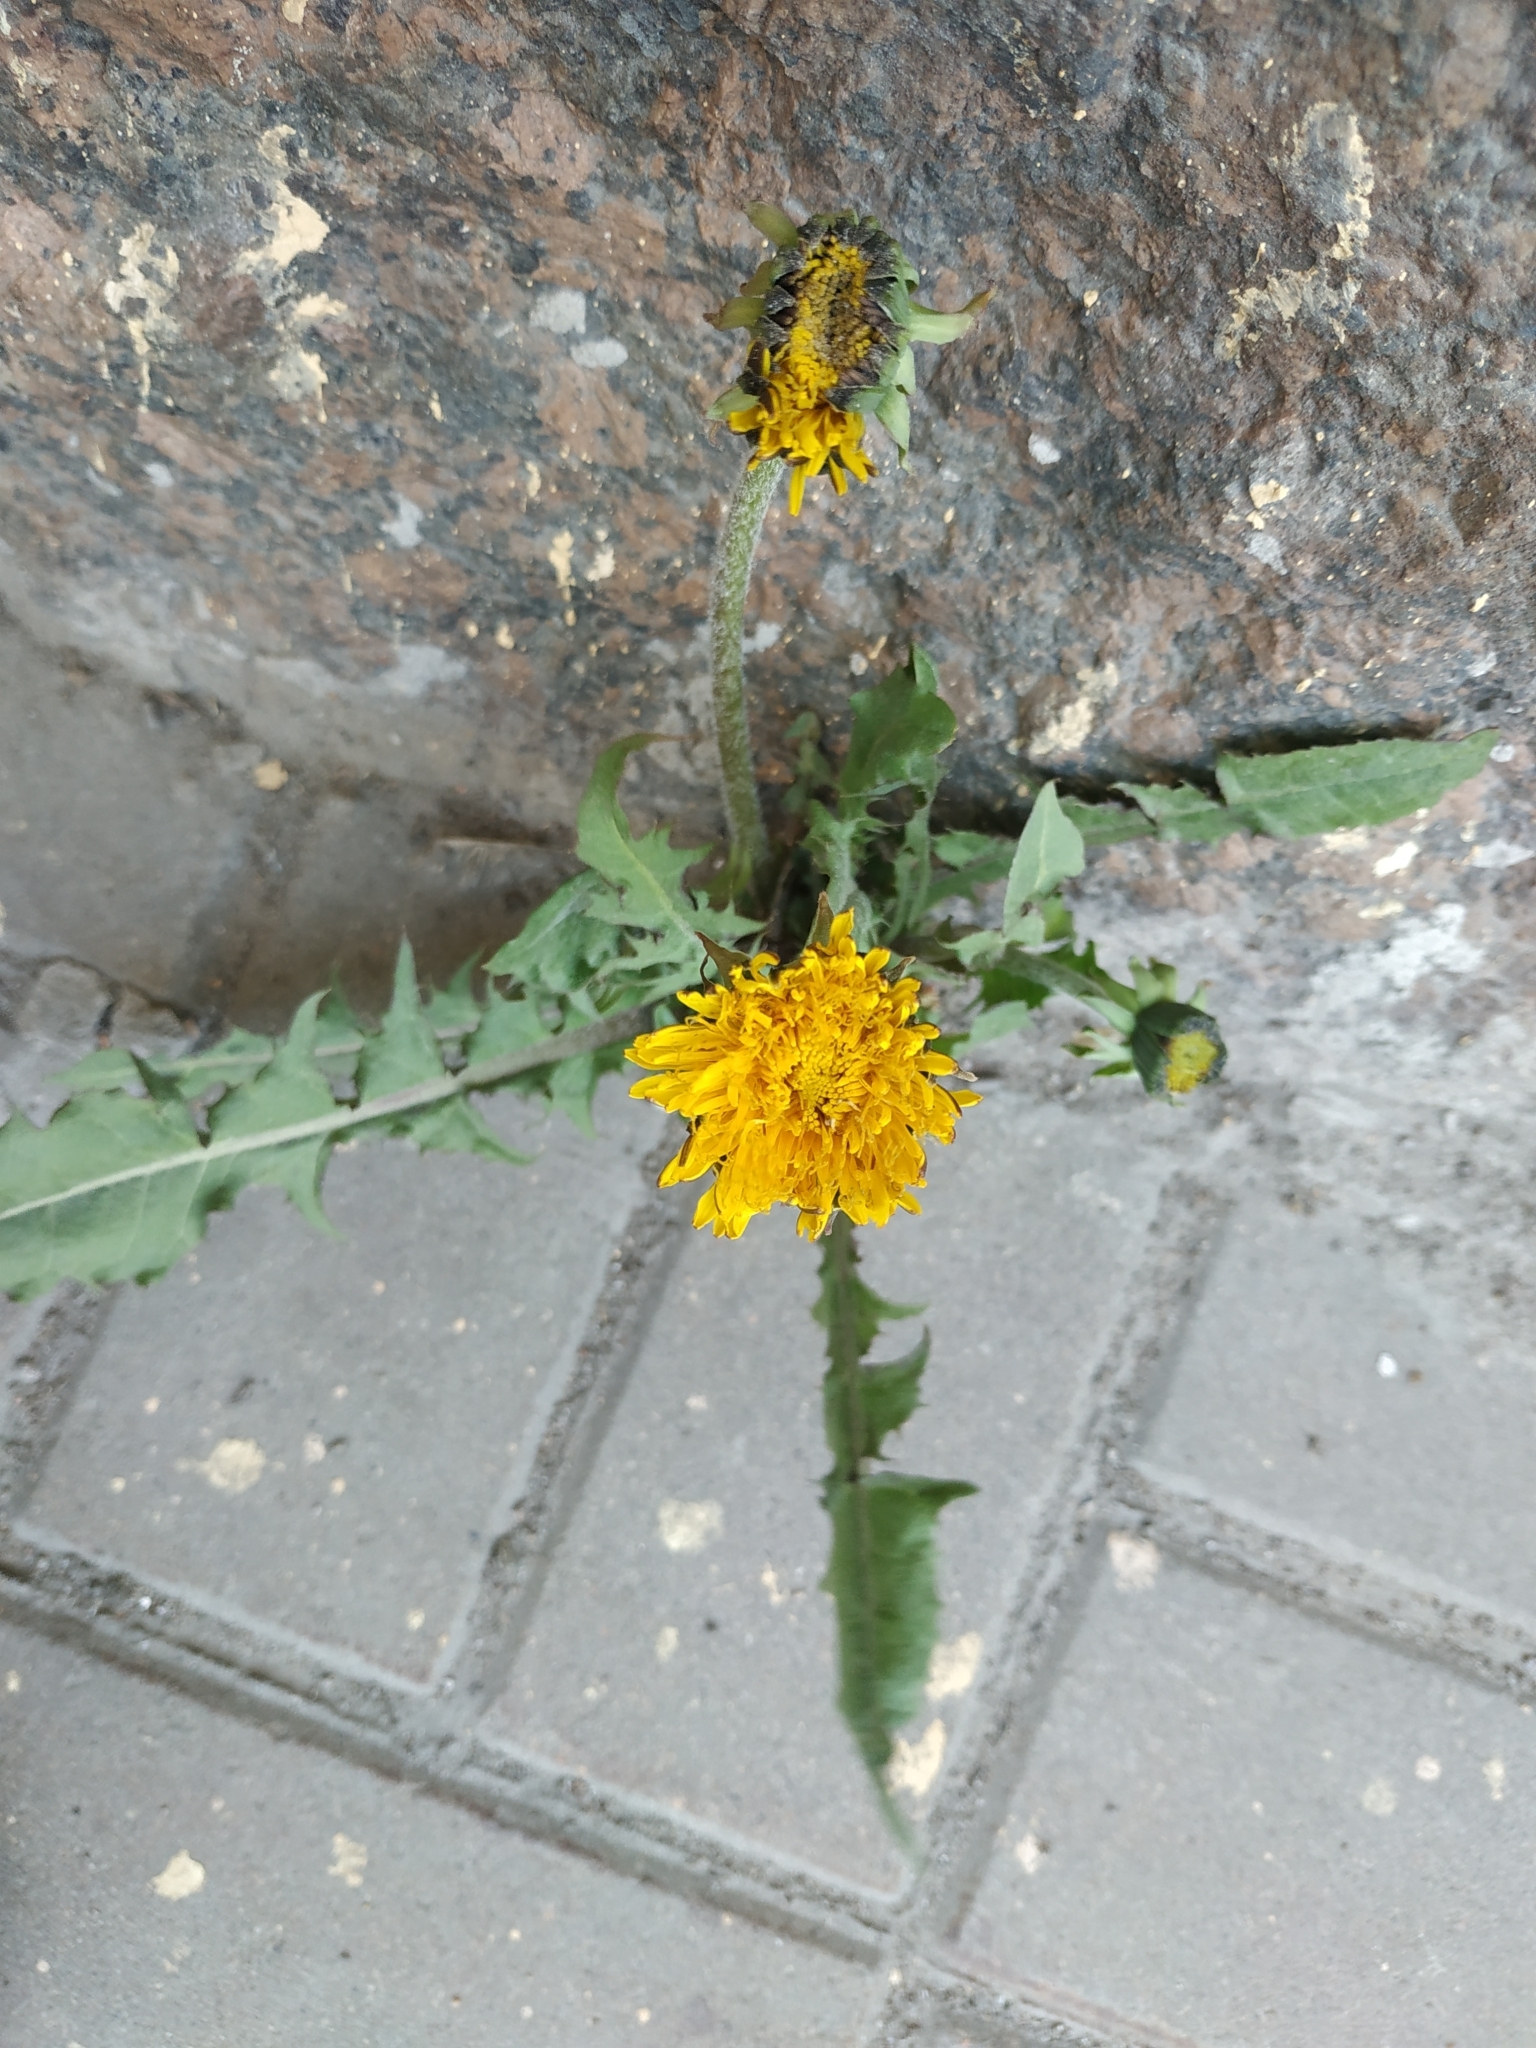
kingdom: Plantae
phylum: Tracheophyta
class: Magnoliopsida
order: Asterales
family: Asteraceae
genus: Taraxacum
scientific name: Taraxacum officinale
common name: Common dandelion
